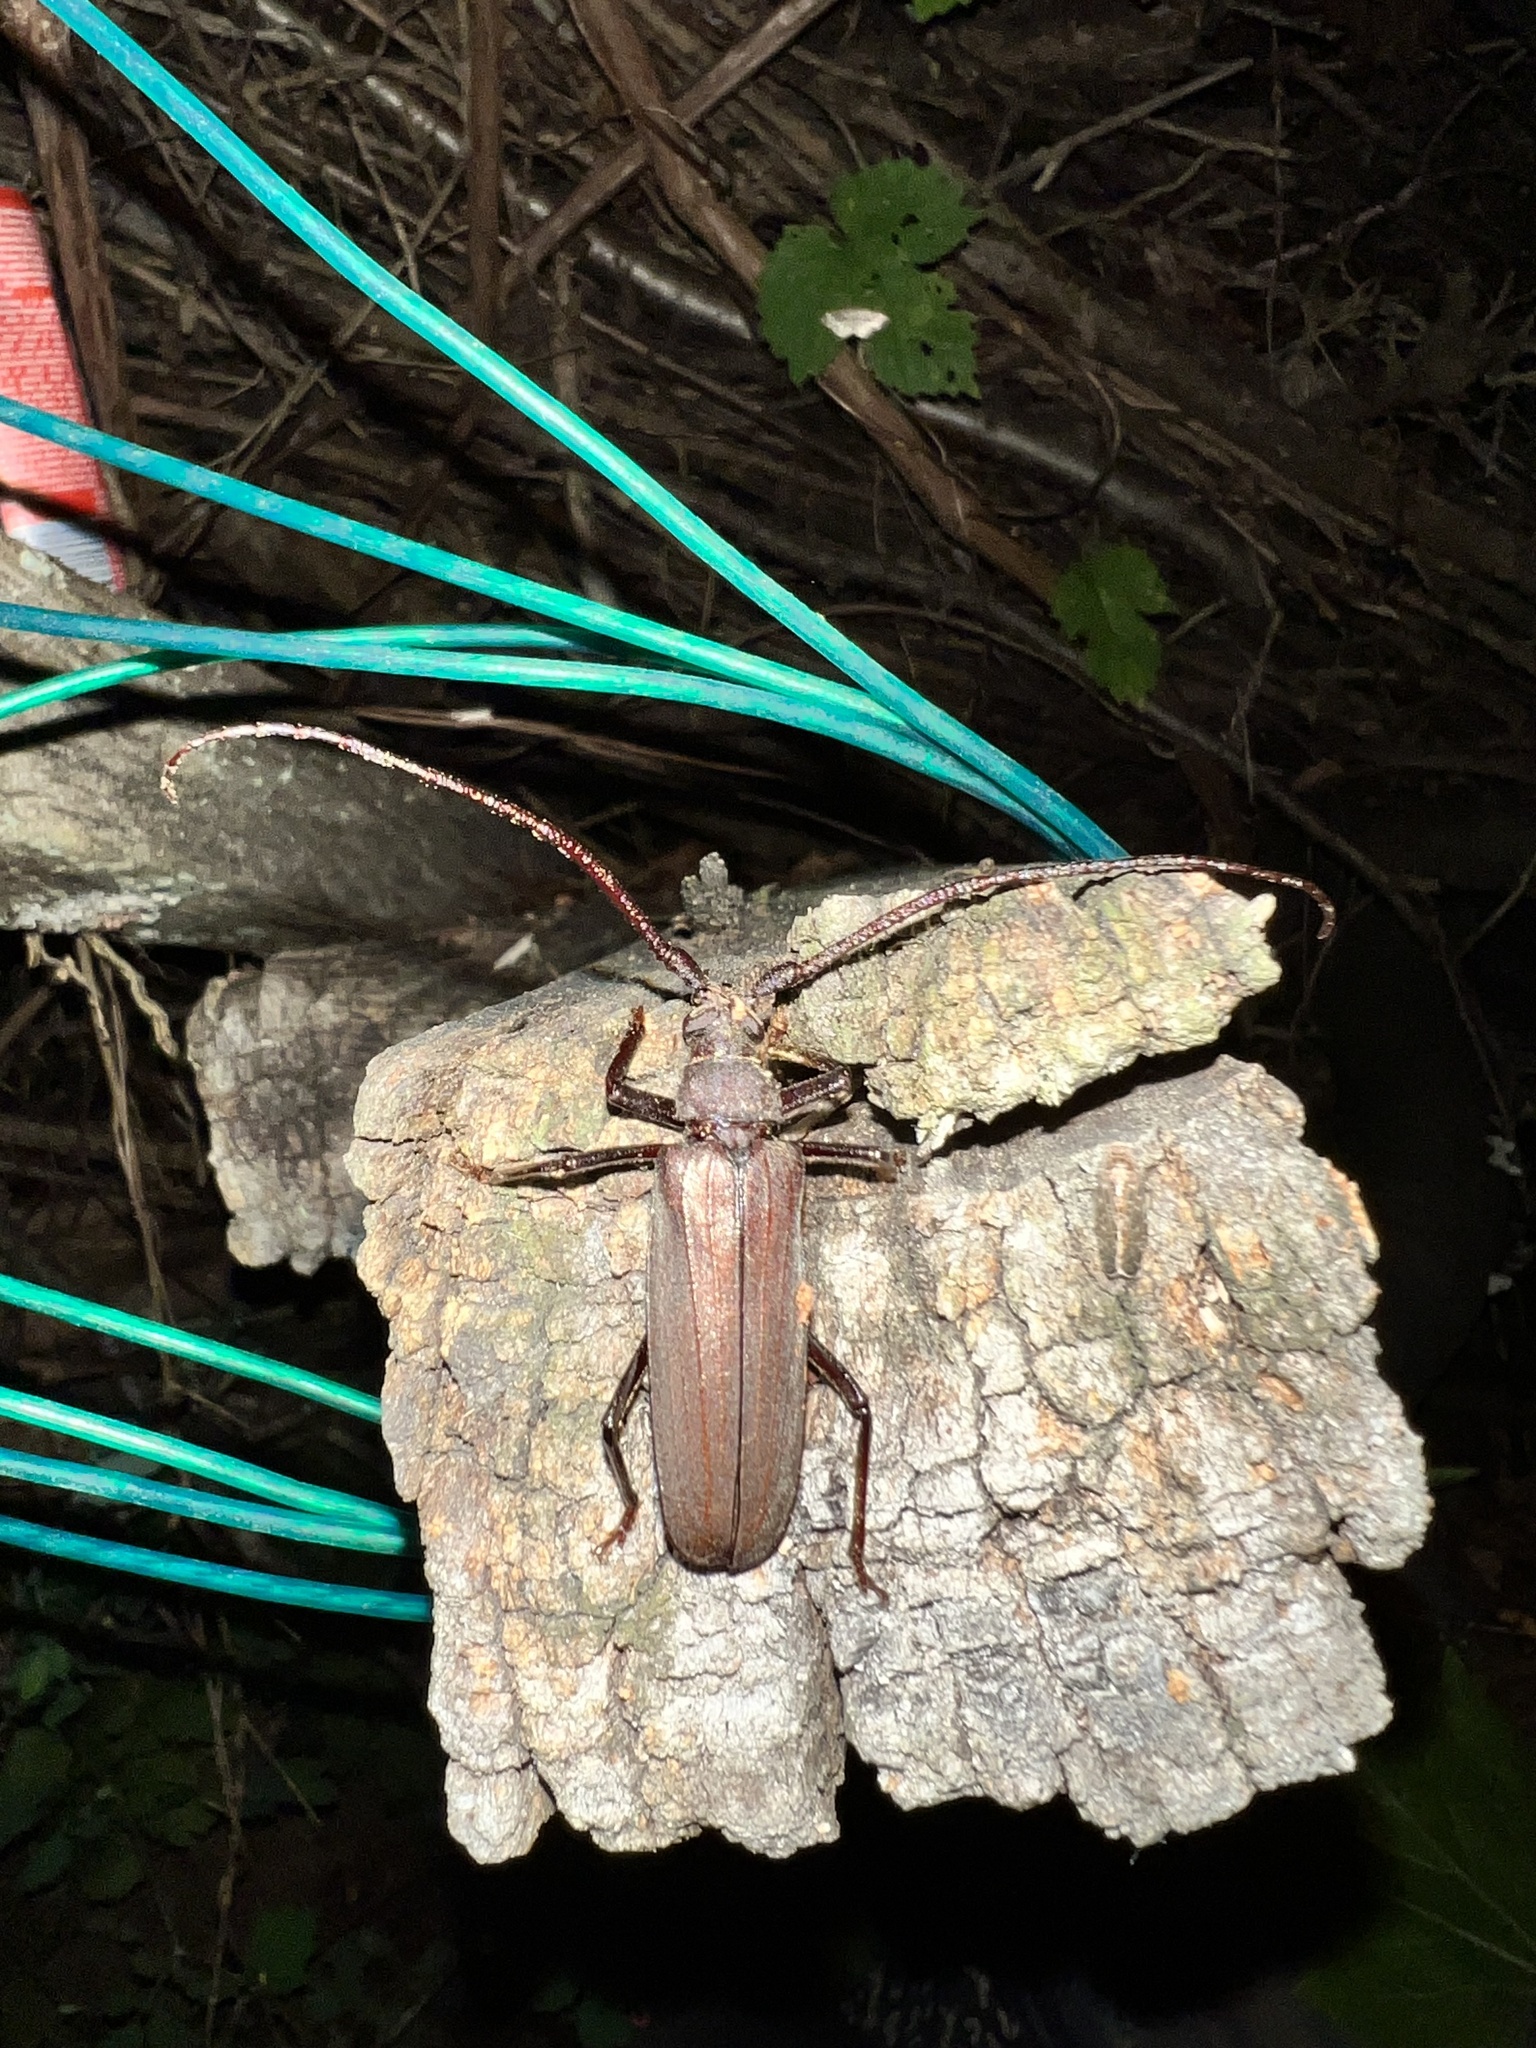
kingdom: Animalia
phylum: Arthropoda
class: Insecta
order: Coleoptera
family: Cerambycidae
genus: Aegosoma
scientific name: Aegosoma scabricorne
